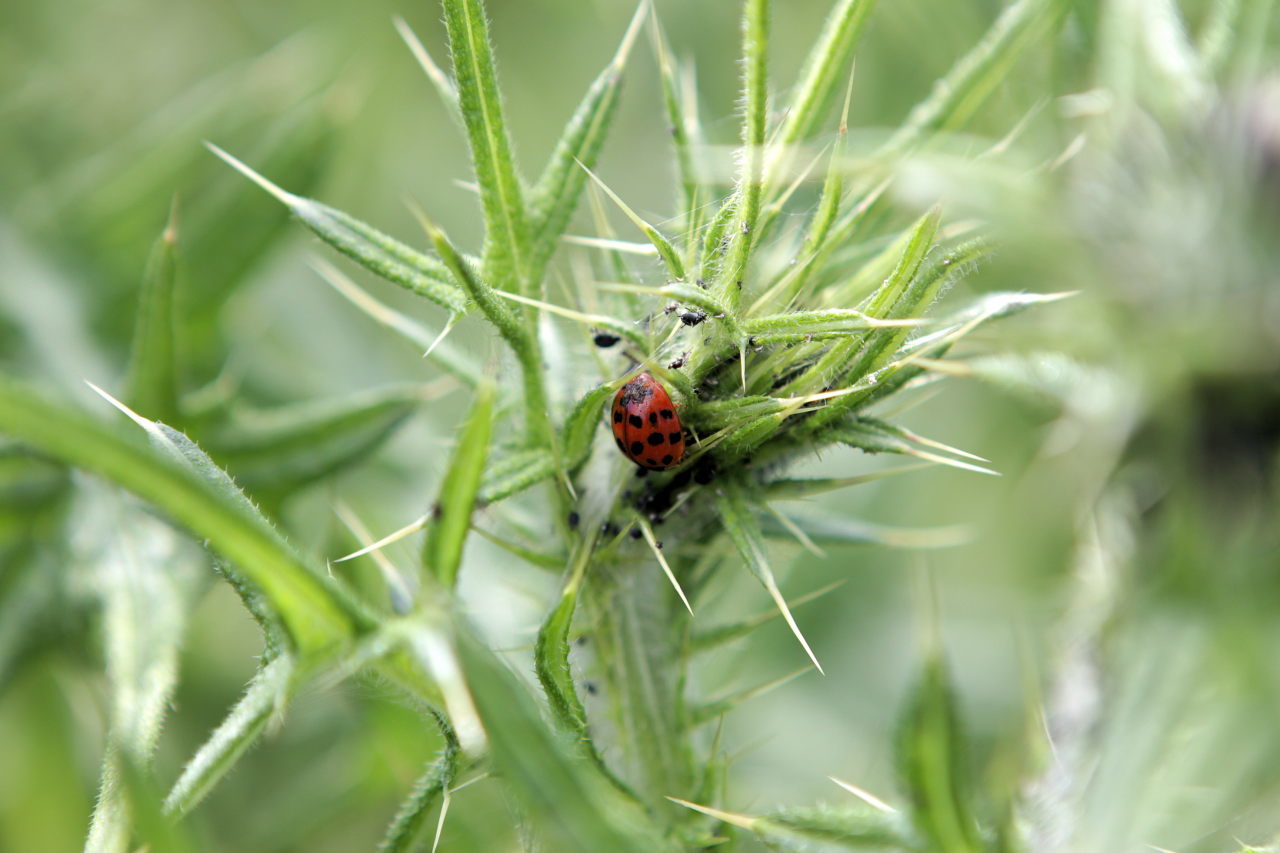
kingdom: Animalia
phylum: Arthropoda
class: Insecta
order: Coleoptera
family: Coccinellidae
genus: Harmonia
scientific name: Harmonia axyridis
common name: Harlequin ladybird
